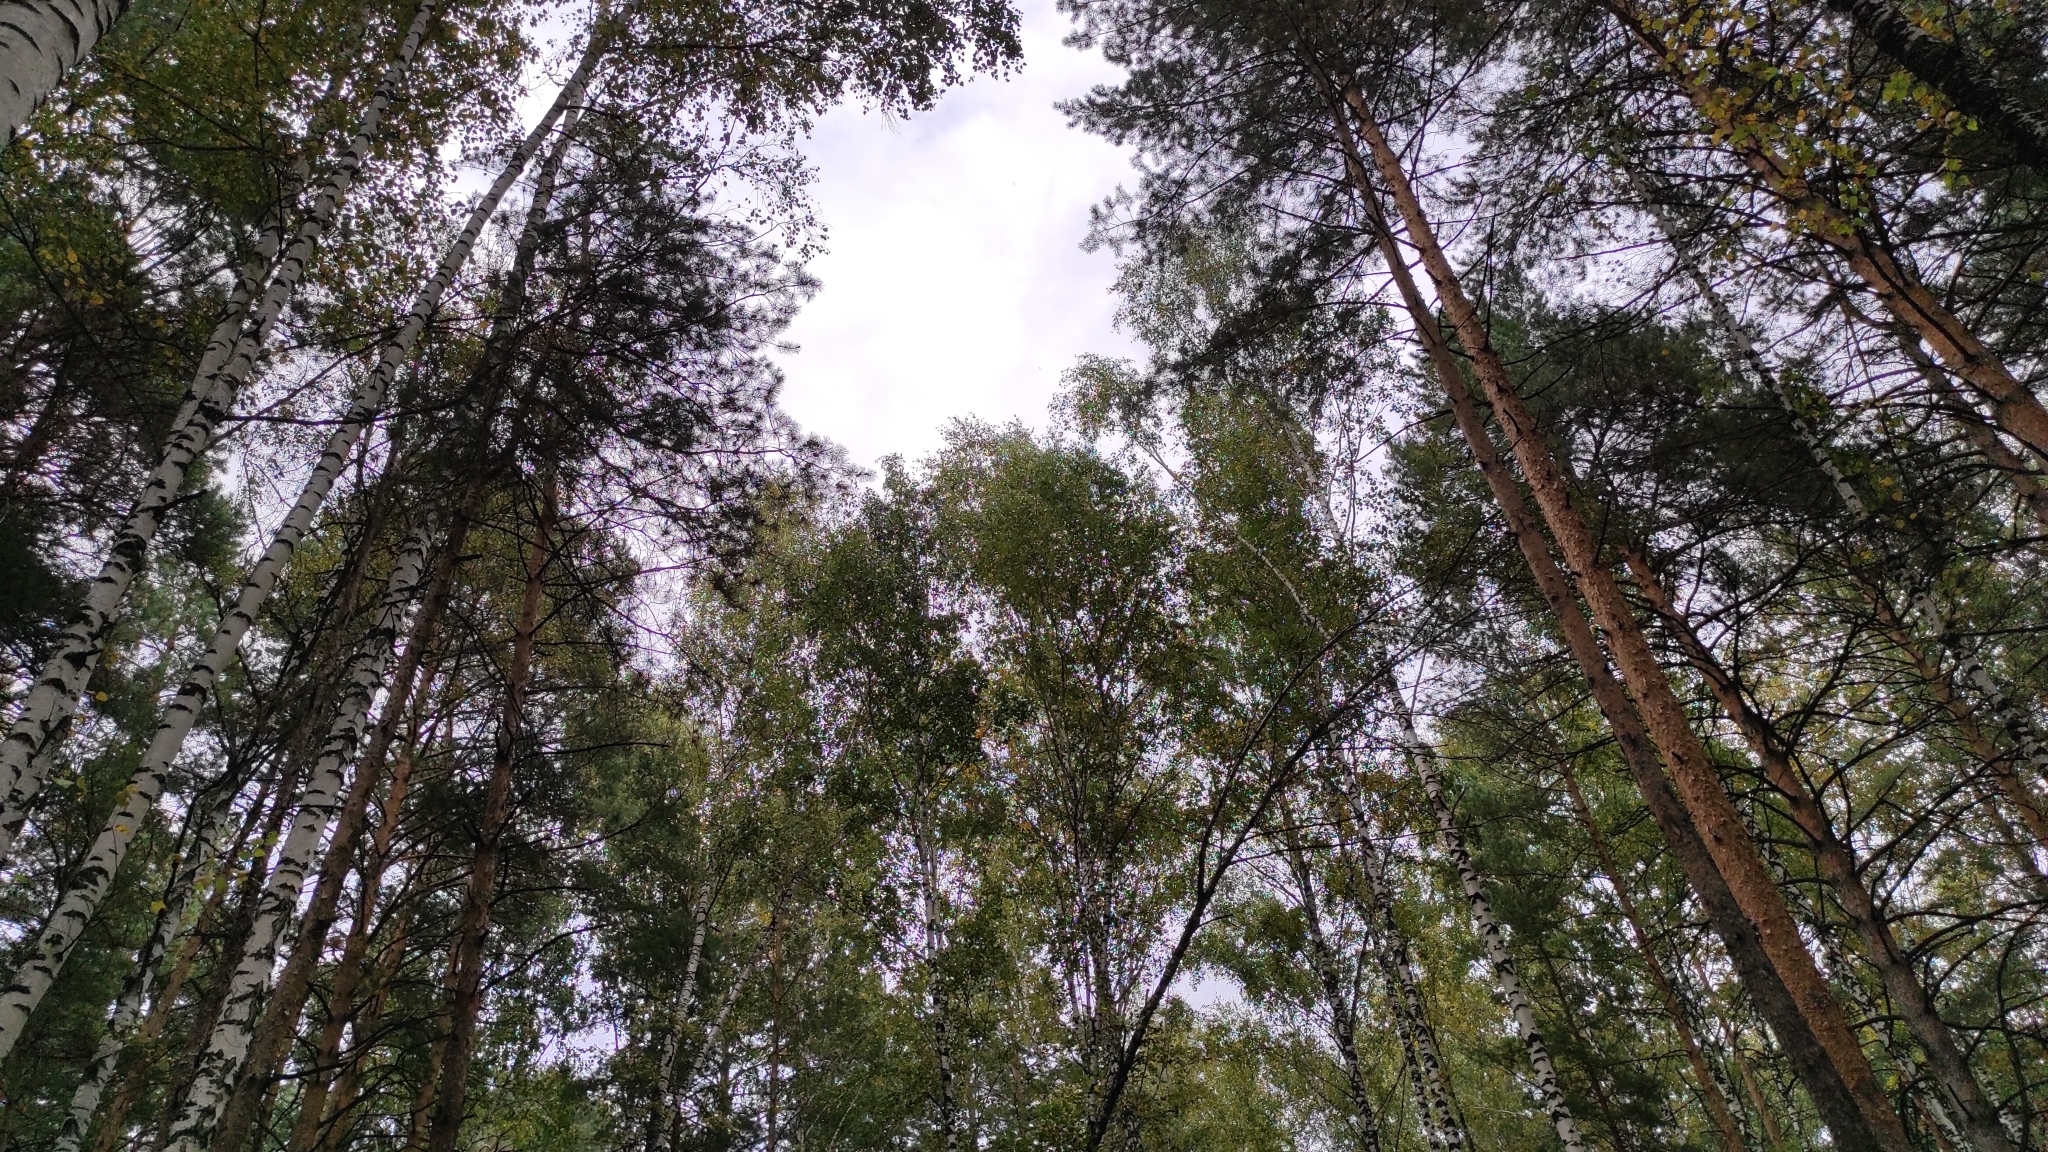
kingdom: Plantae
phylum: Tracheophyta
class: Pinopsida
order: Pinales
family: Pinaceae
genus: Pinus
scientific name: Pinus sylvestris
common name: Scots pine
